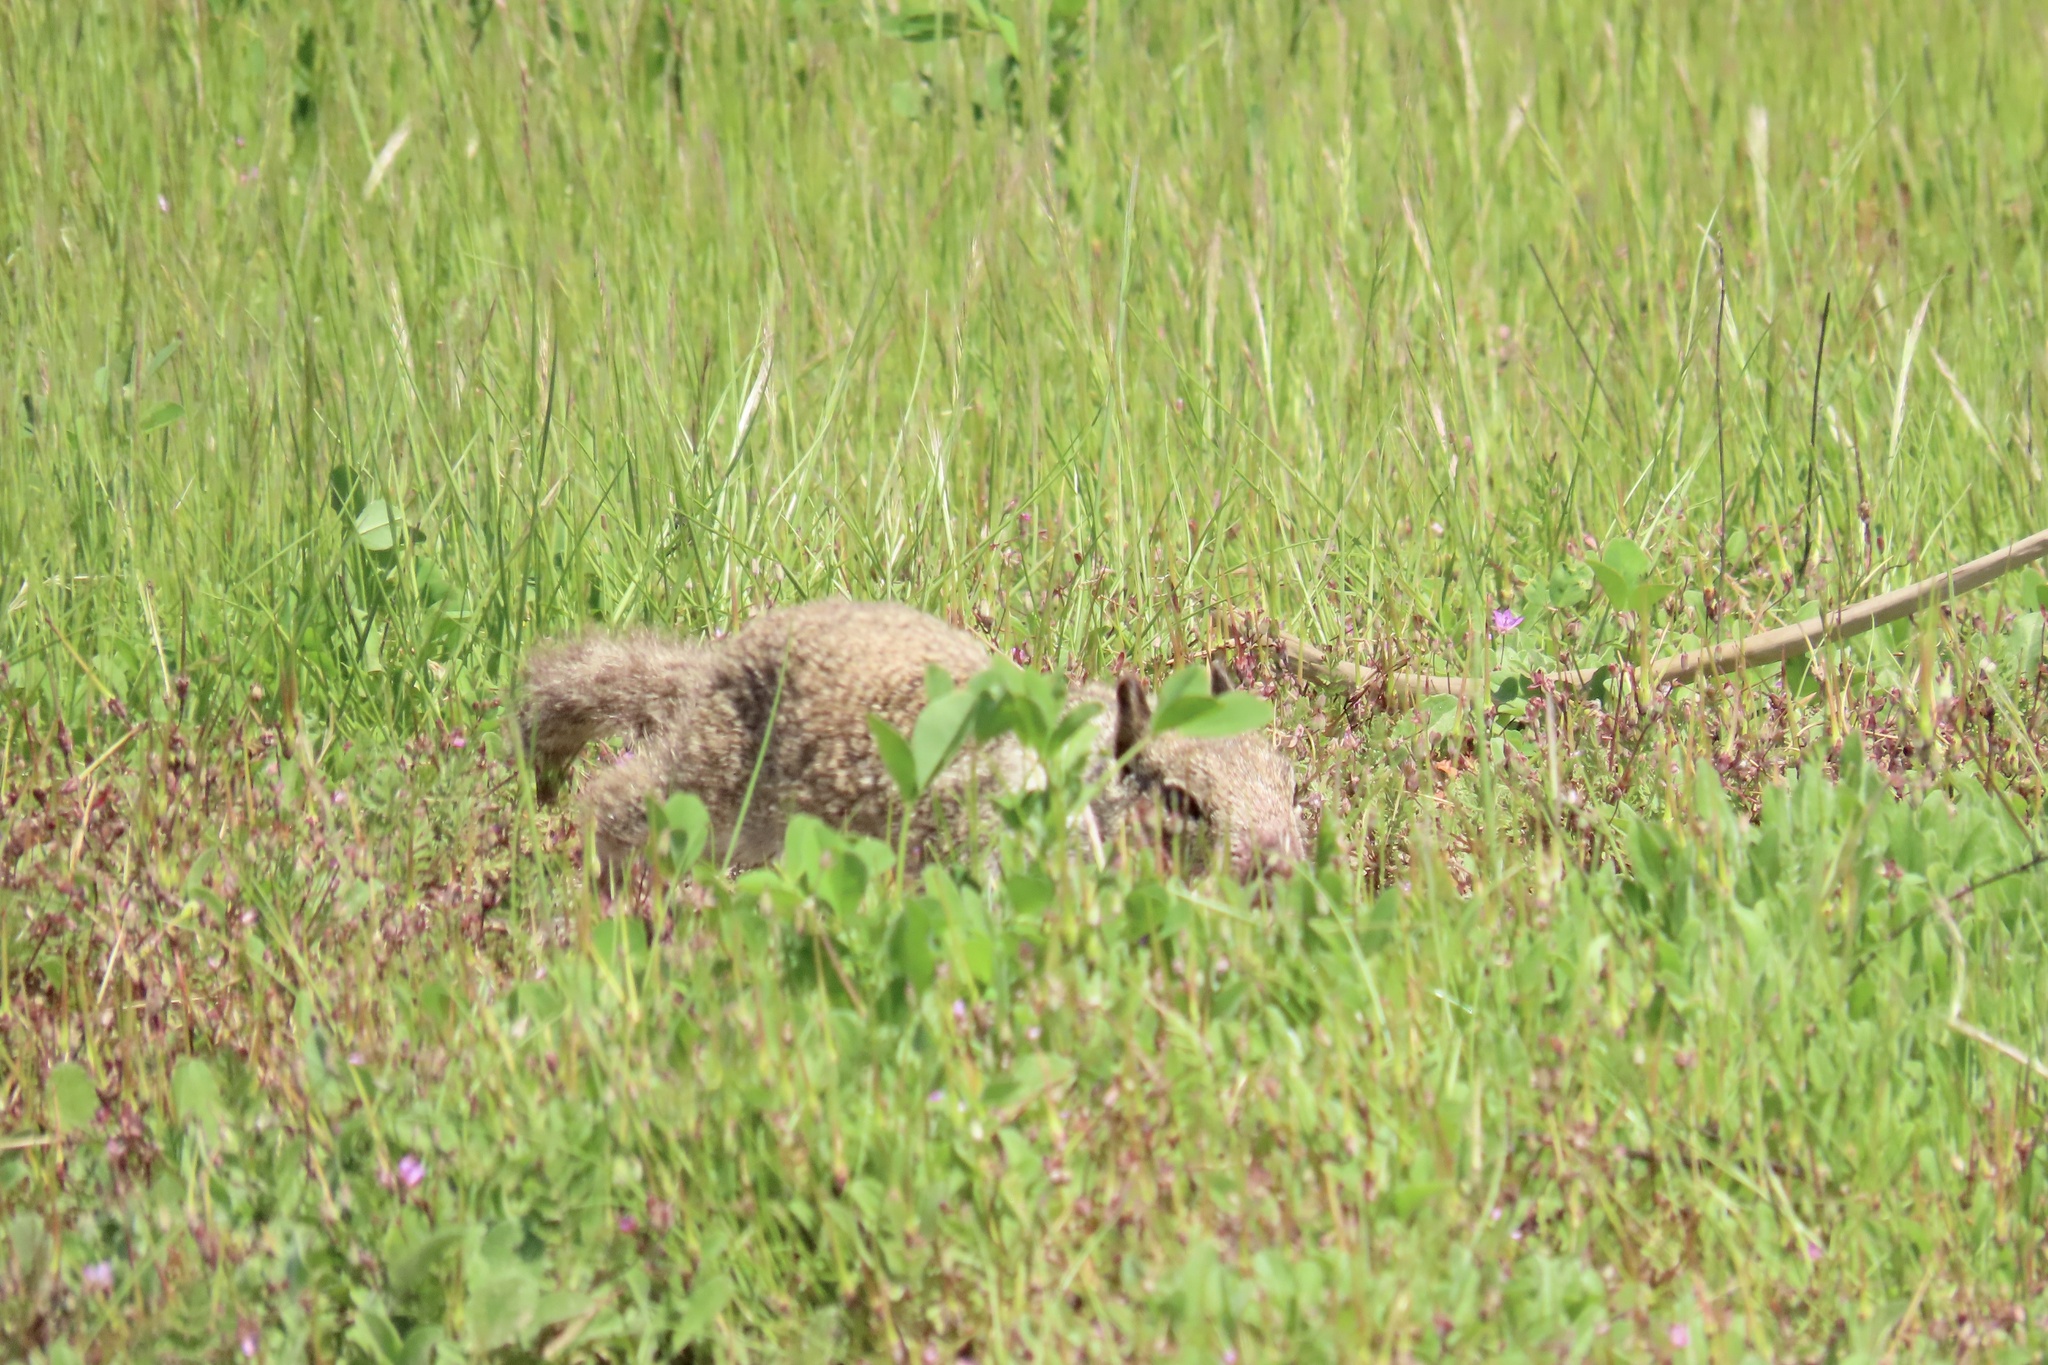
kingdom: Animalia
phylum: Chordata
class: Mammalia
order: Rodentia
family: Sciuridae
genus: Otospermophilus
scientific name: Otospermophilus beecheyi
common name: California ground squirrel
